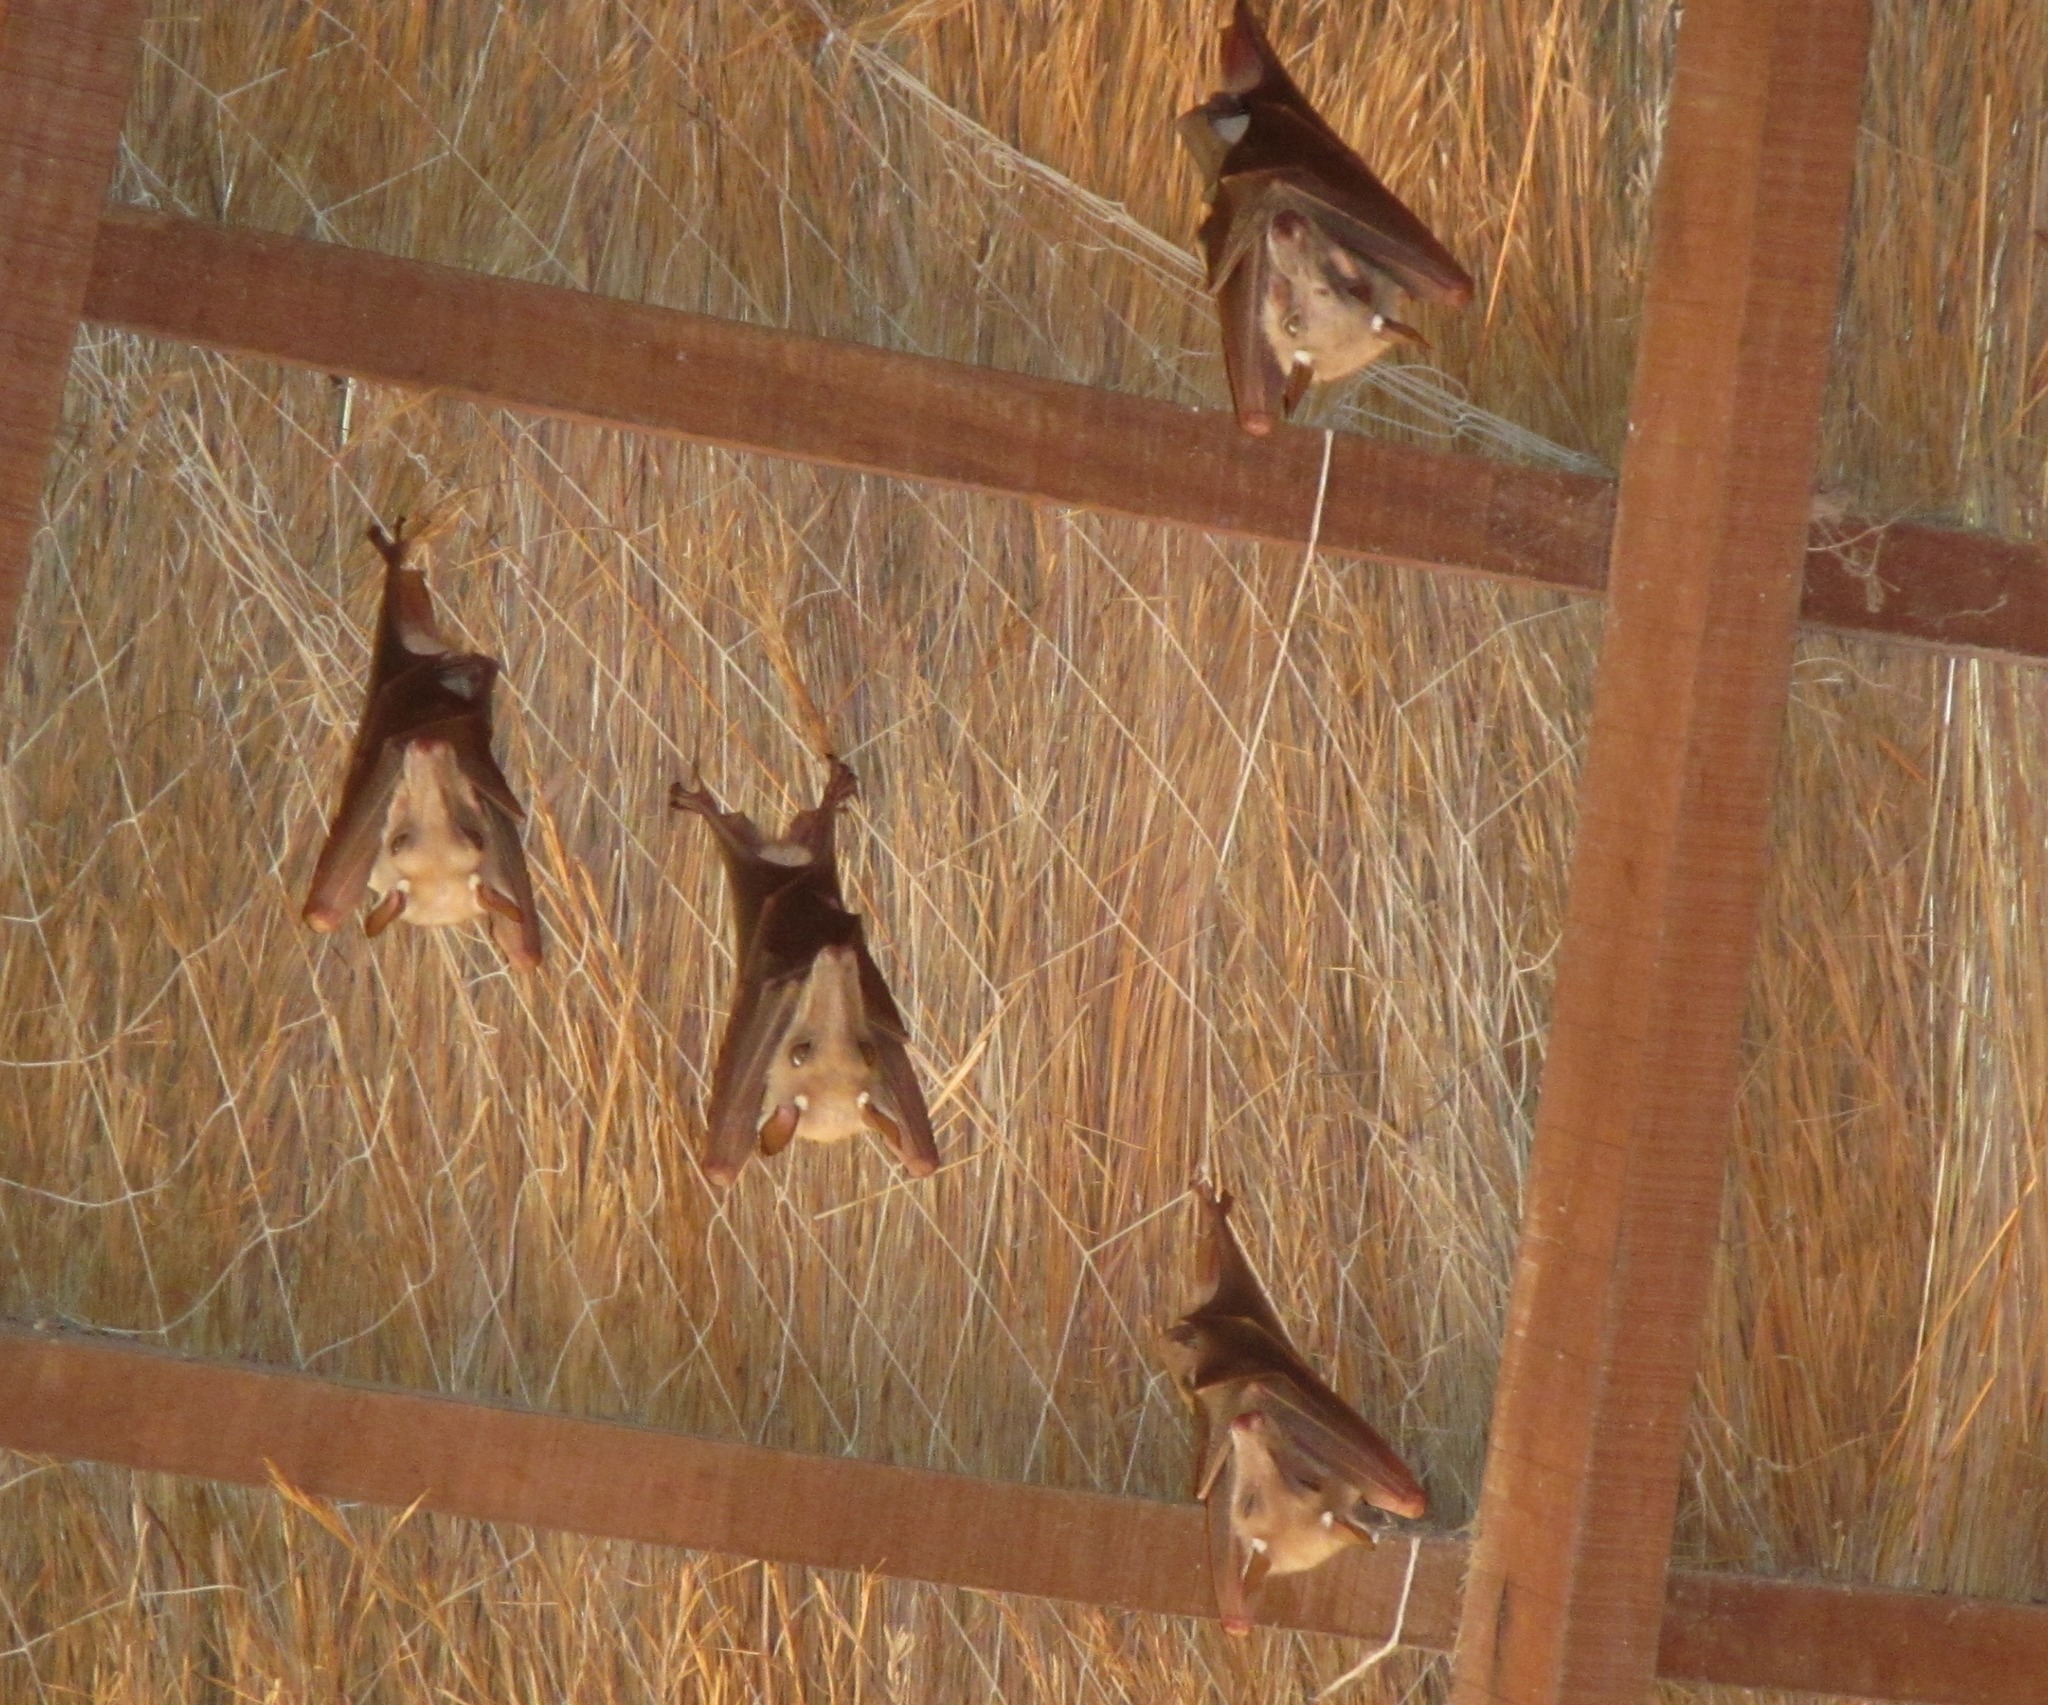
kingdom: Animalia
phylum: Chordata
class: Mammalia
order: Chiroptera
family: Pteropodidae
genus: Epomophorus
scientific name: Epomophorus gambianus
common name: Gambian epauletted fruit bat
